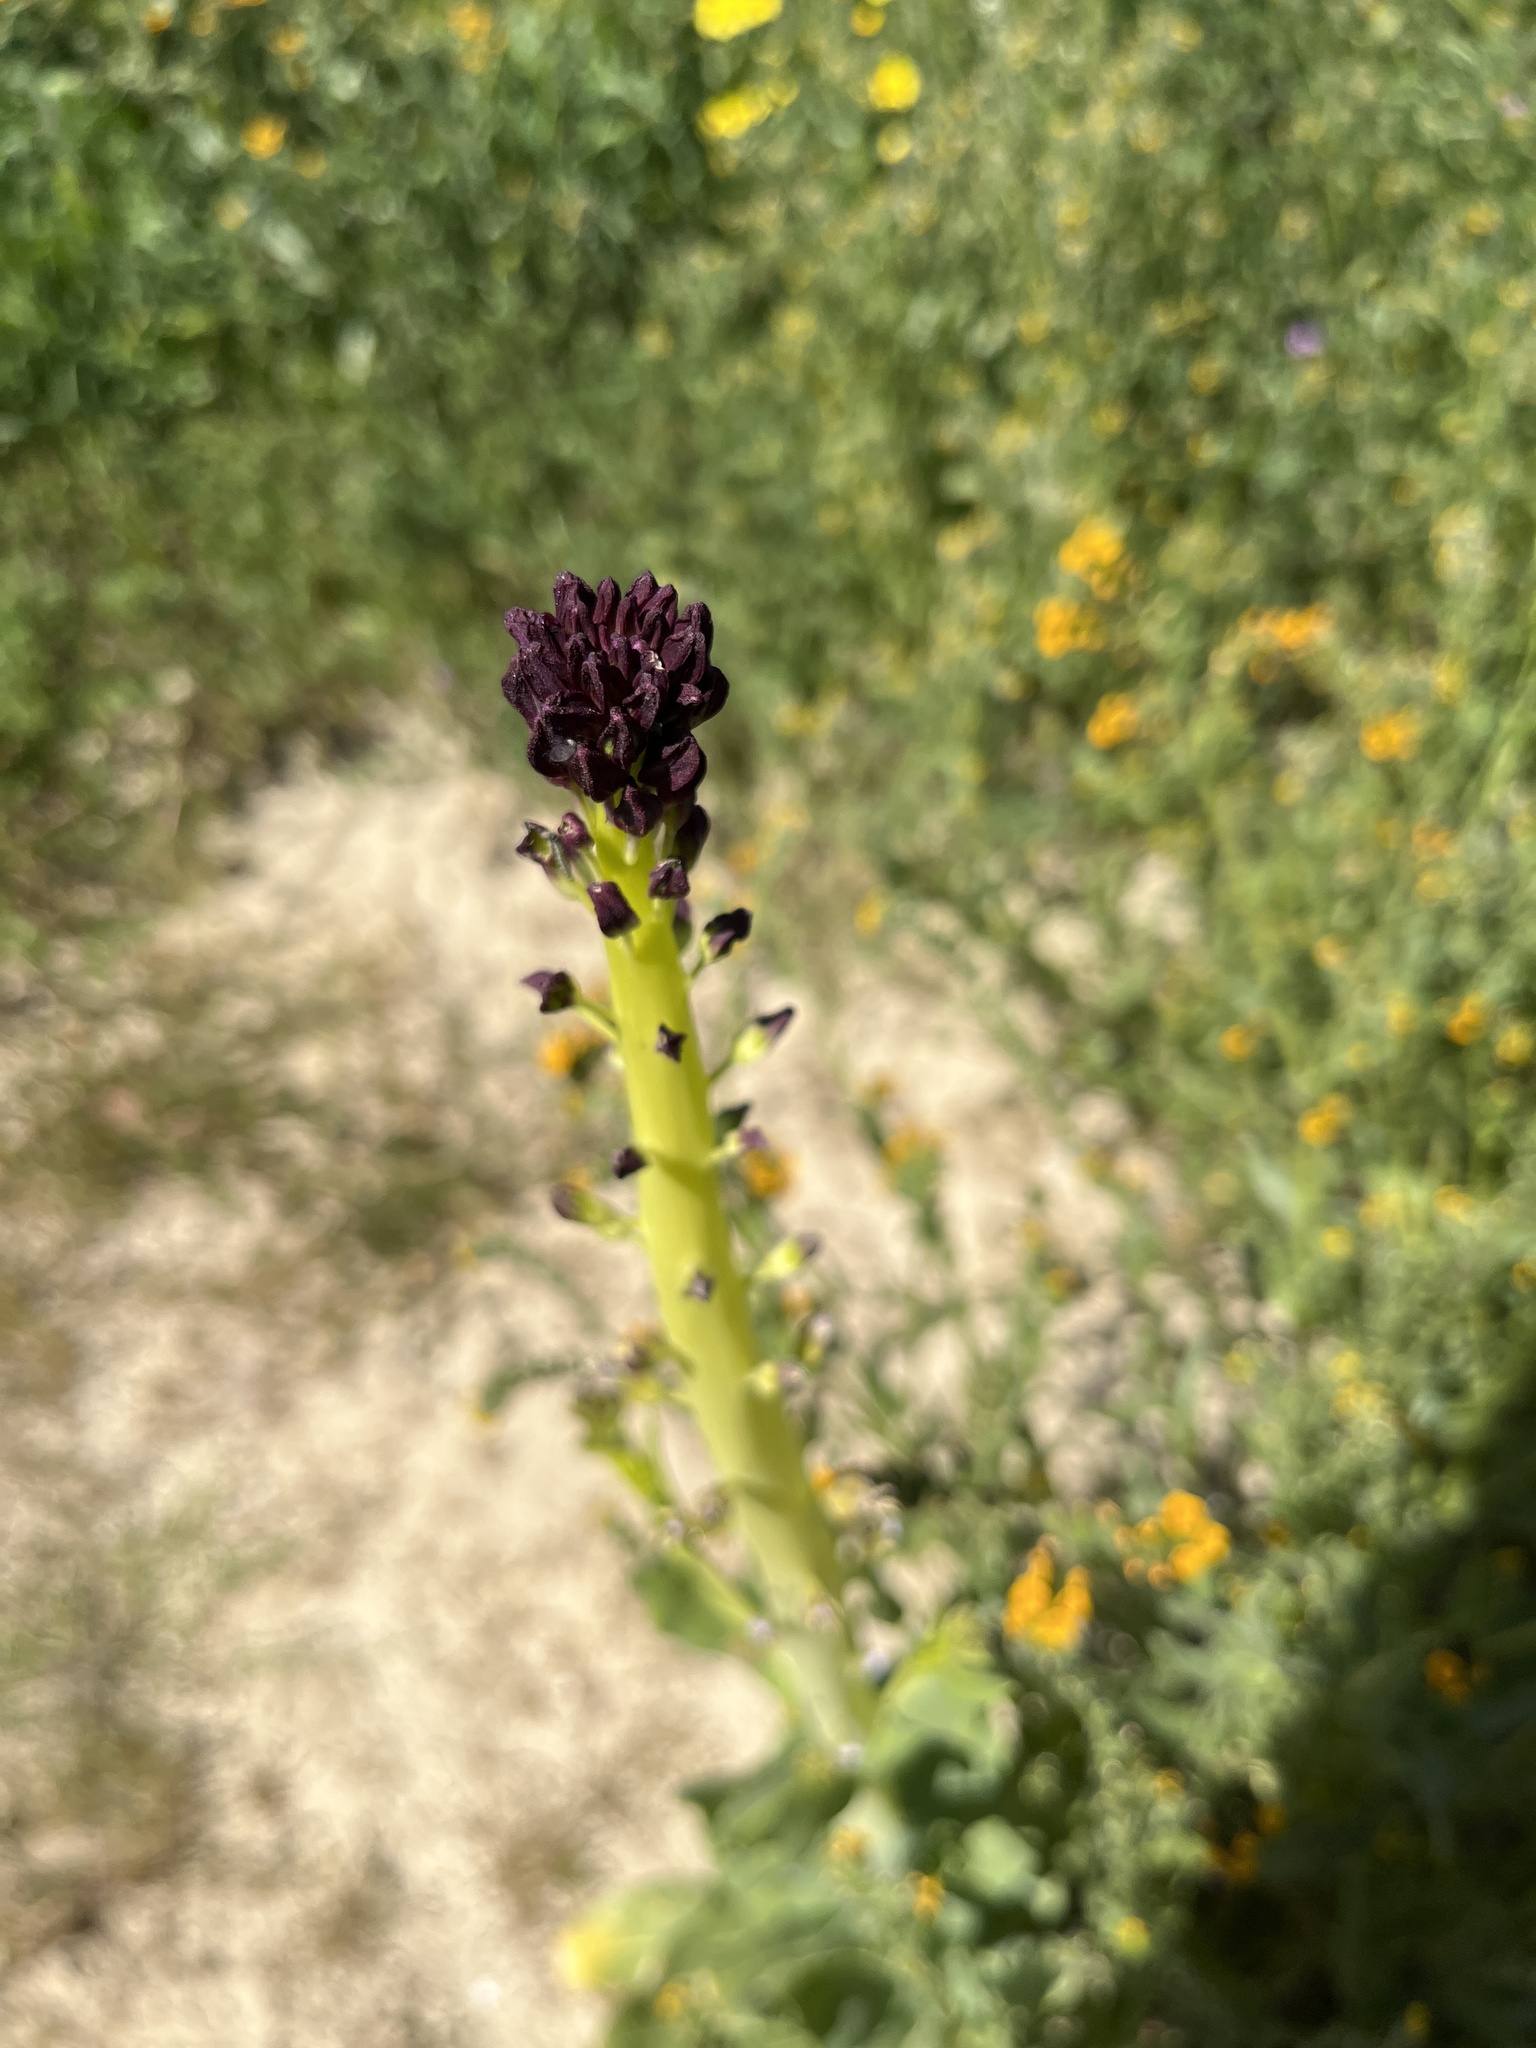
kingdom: Plantae
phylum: Tracheophyta
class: Magnoliopsida
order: Brassicales
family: Brassicaceae
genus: Streptanthus
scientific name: Streptanthus inflatus
